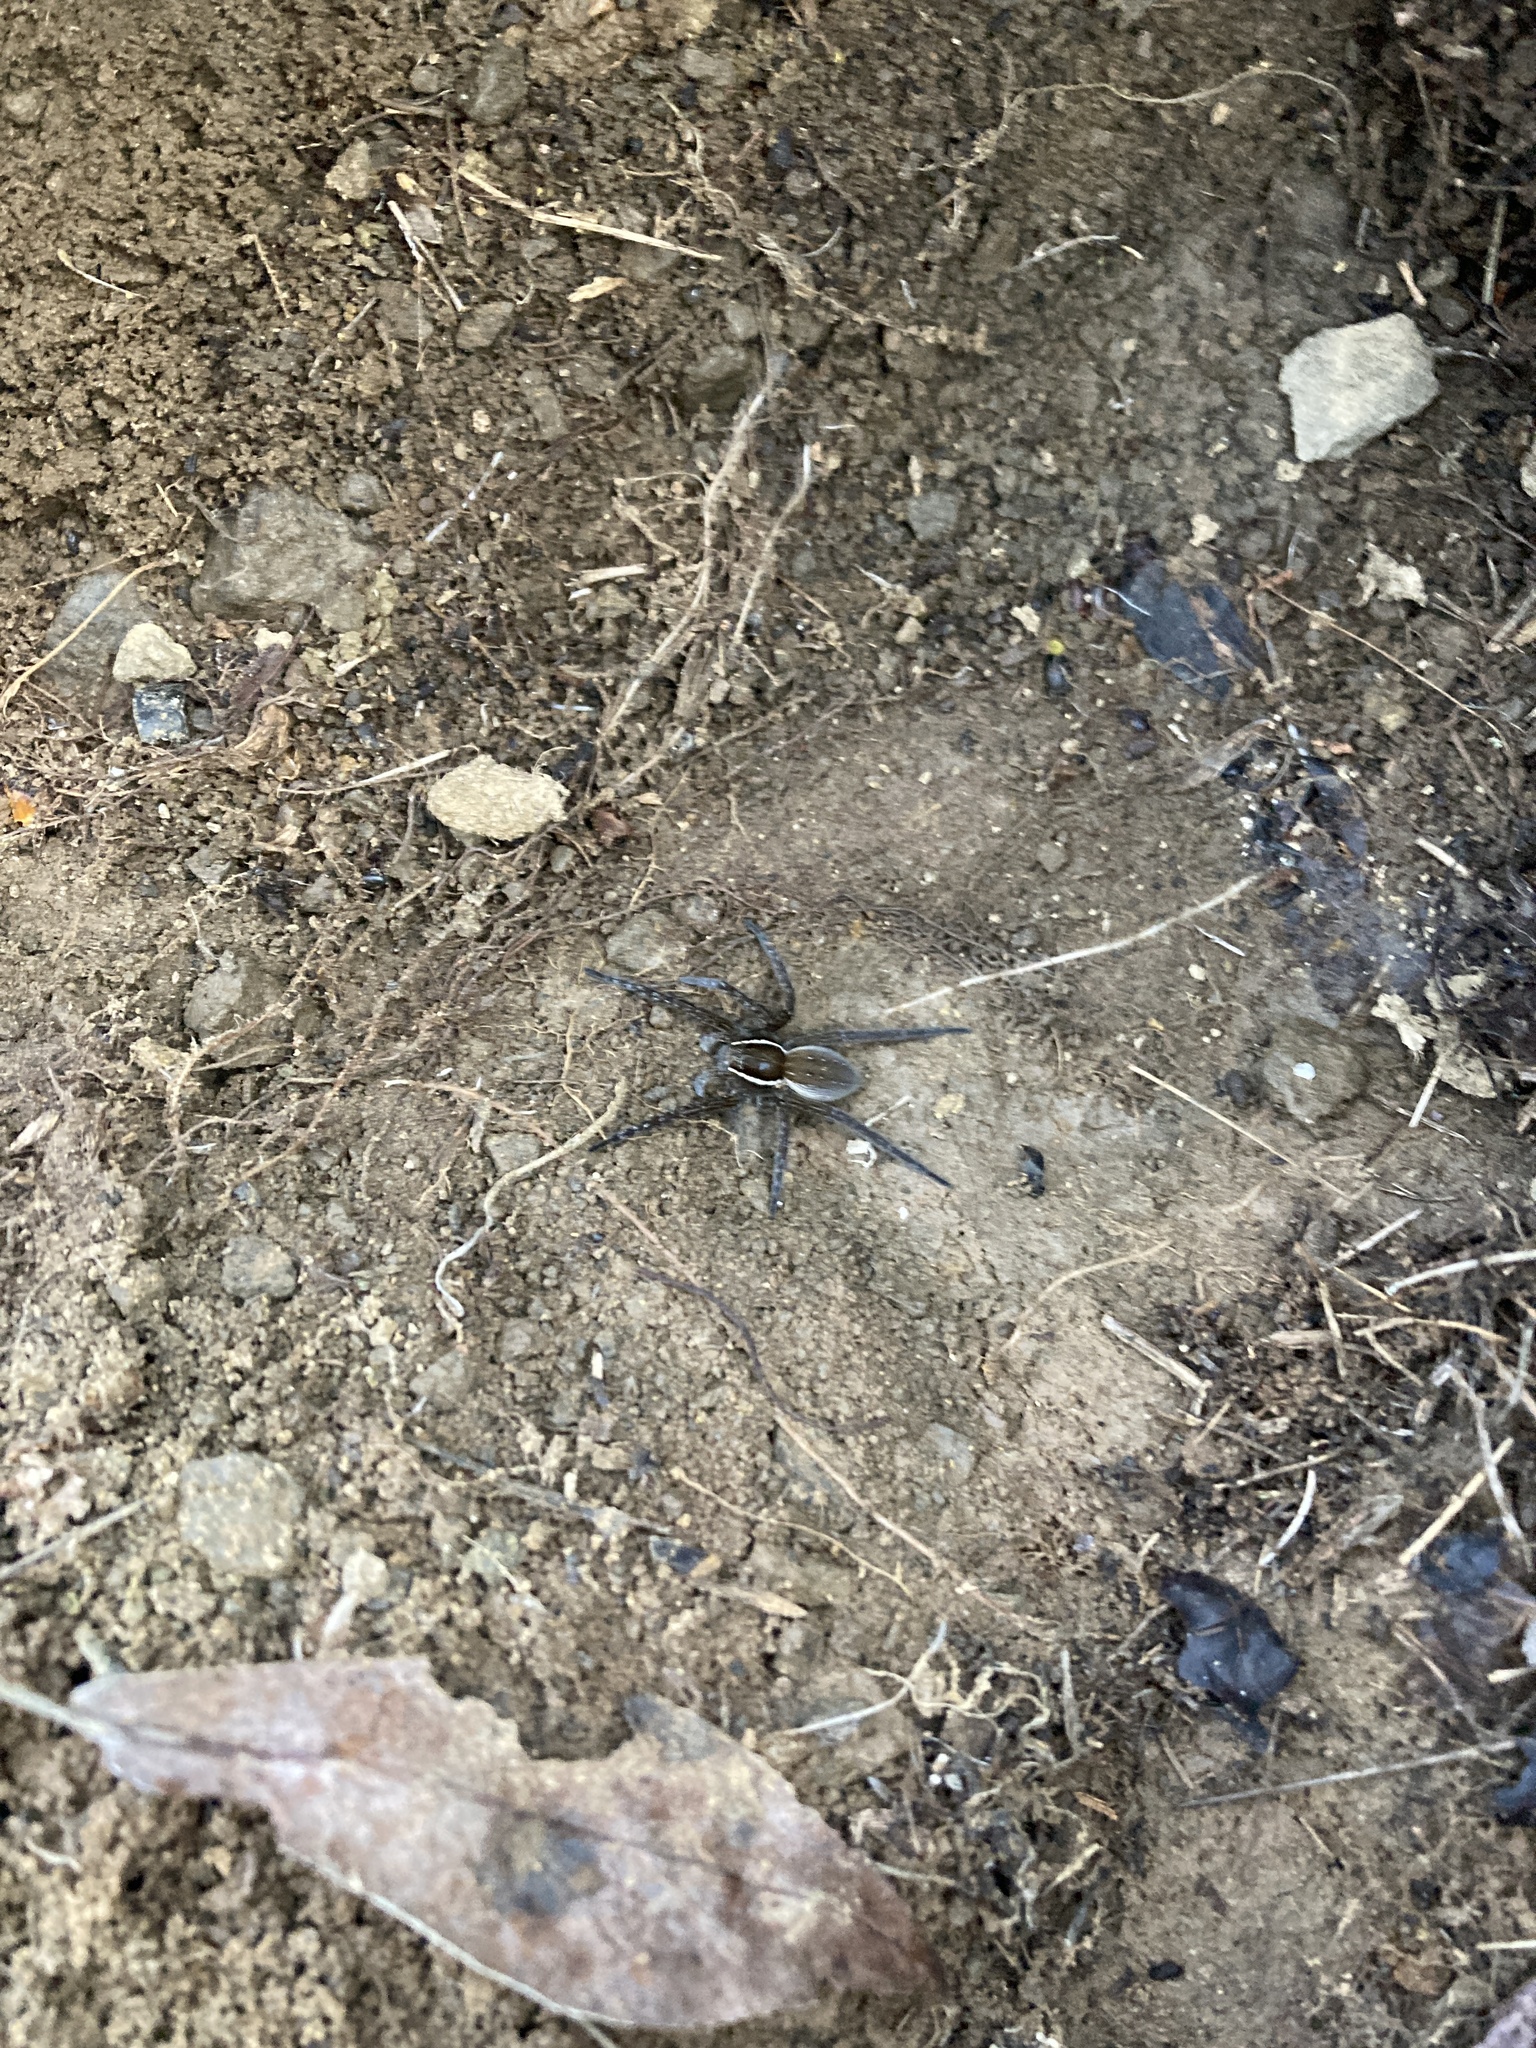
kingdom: Animalia
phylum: Arthropoda
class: Arachnida
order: Araneae
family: Pisauridae
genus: Dolomedes
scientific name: Dolomedes triton
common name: Six-spotted fishing spider
